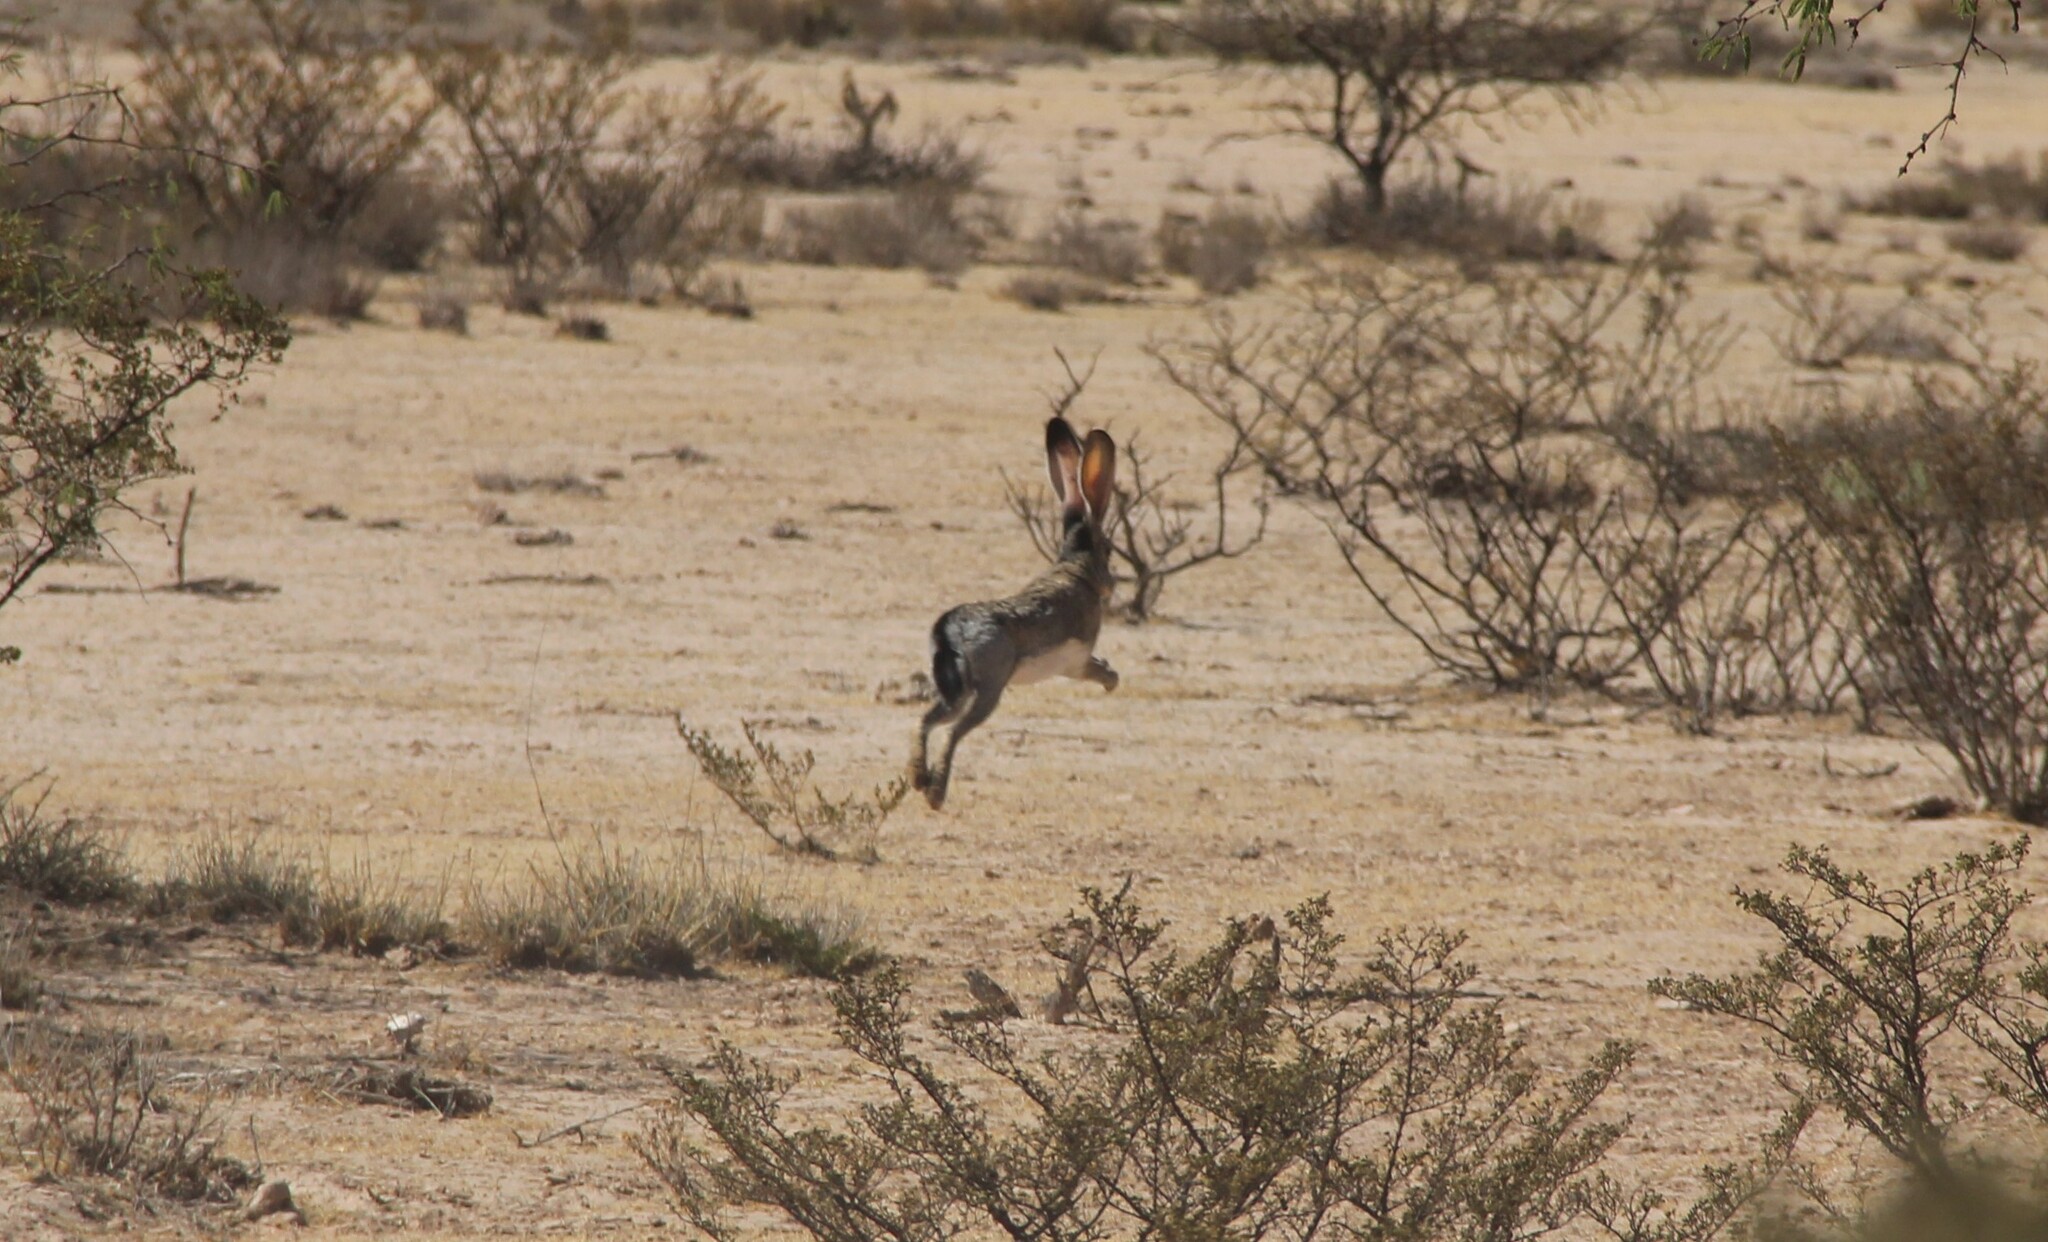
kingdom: Animalia
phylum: Chordata
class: Mammalia
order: Lagomorpha
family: Leporidae
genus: Lepus
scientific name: Lepus californicus
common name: Black-tailed jackrabbit
